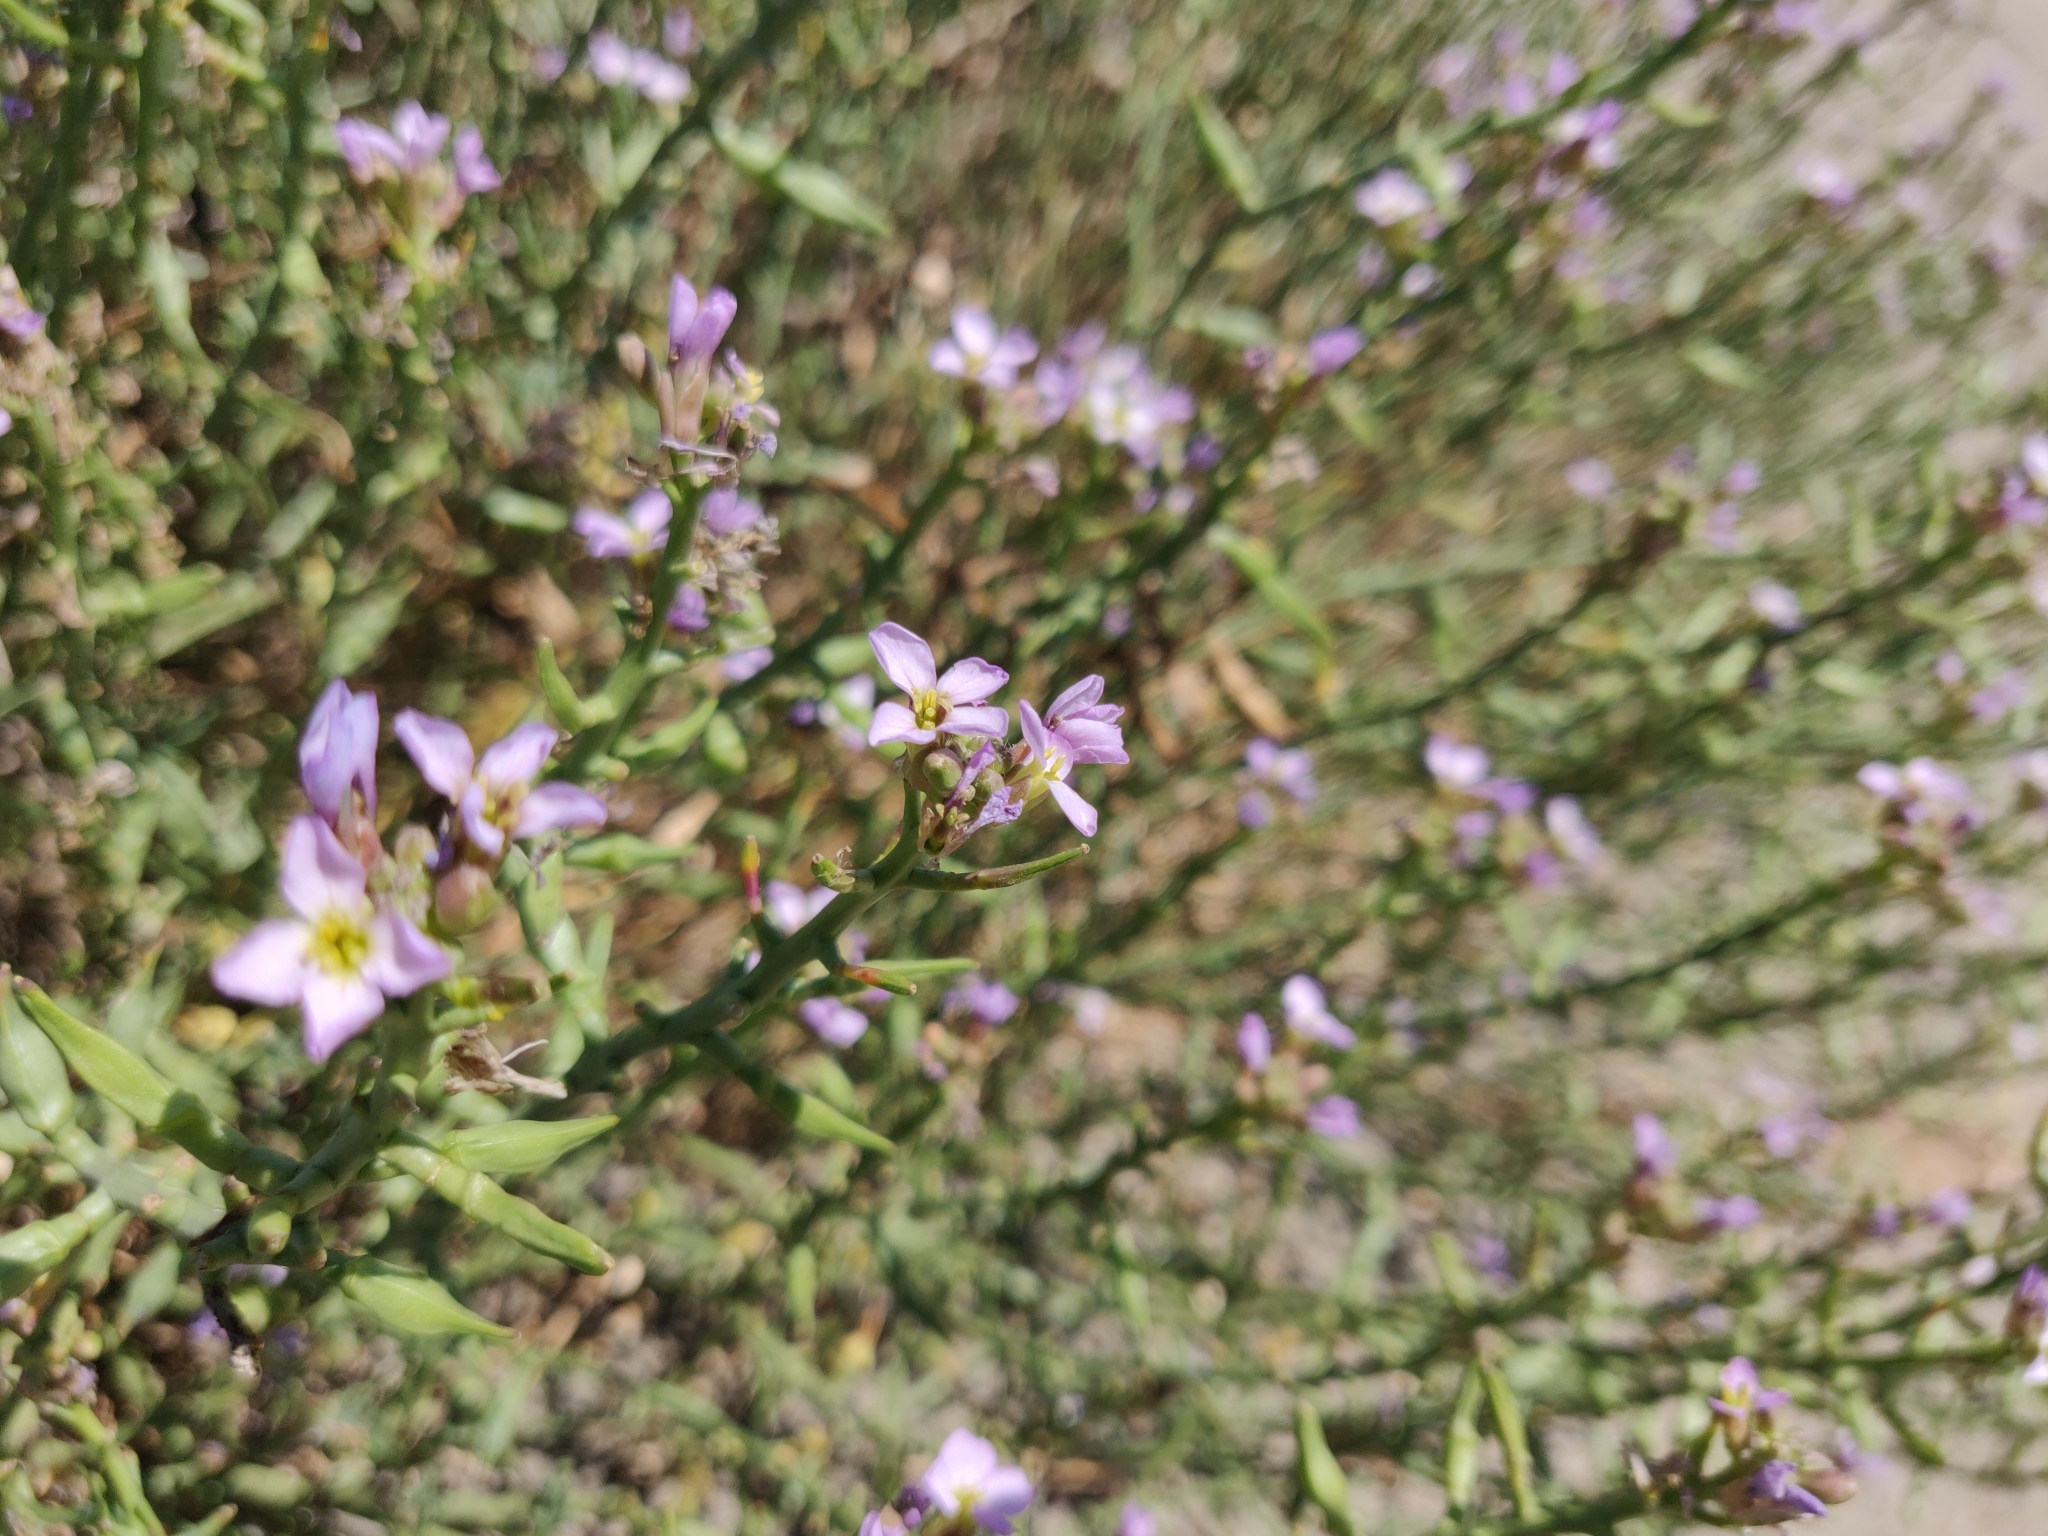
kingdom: Plantae
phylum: Tracheophyta
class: Magnoliopsida
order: Brassicales
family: Brassicaceae
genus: Cakile
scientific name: Cakile maritima
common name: Sea rocket
